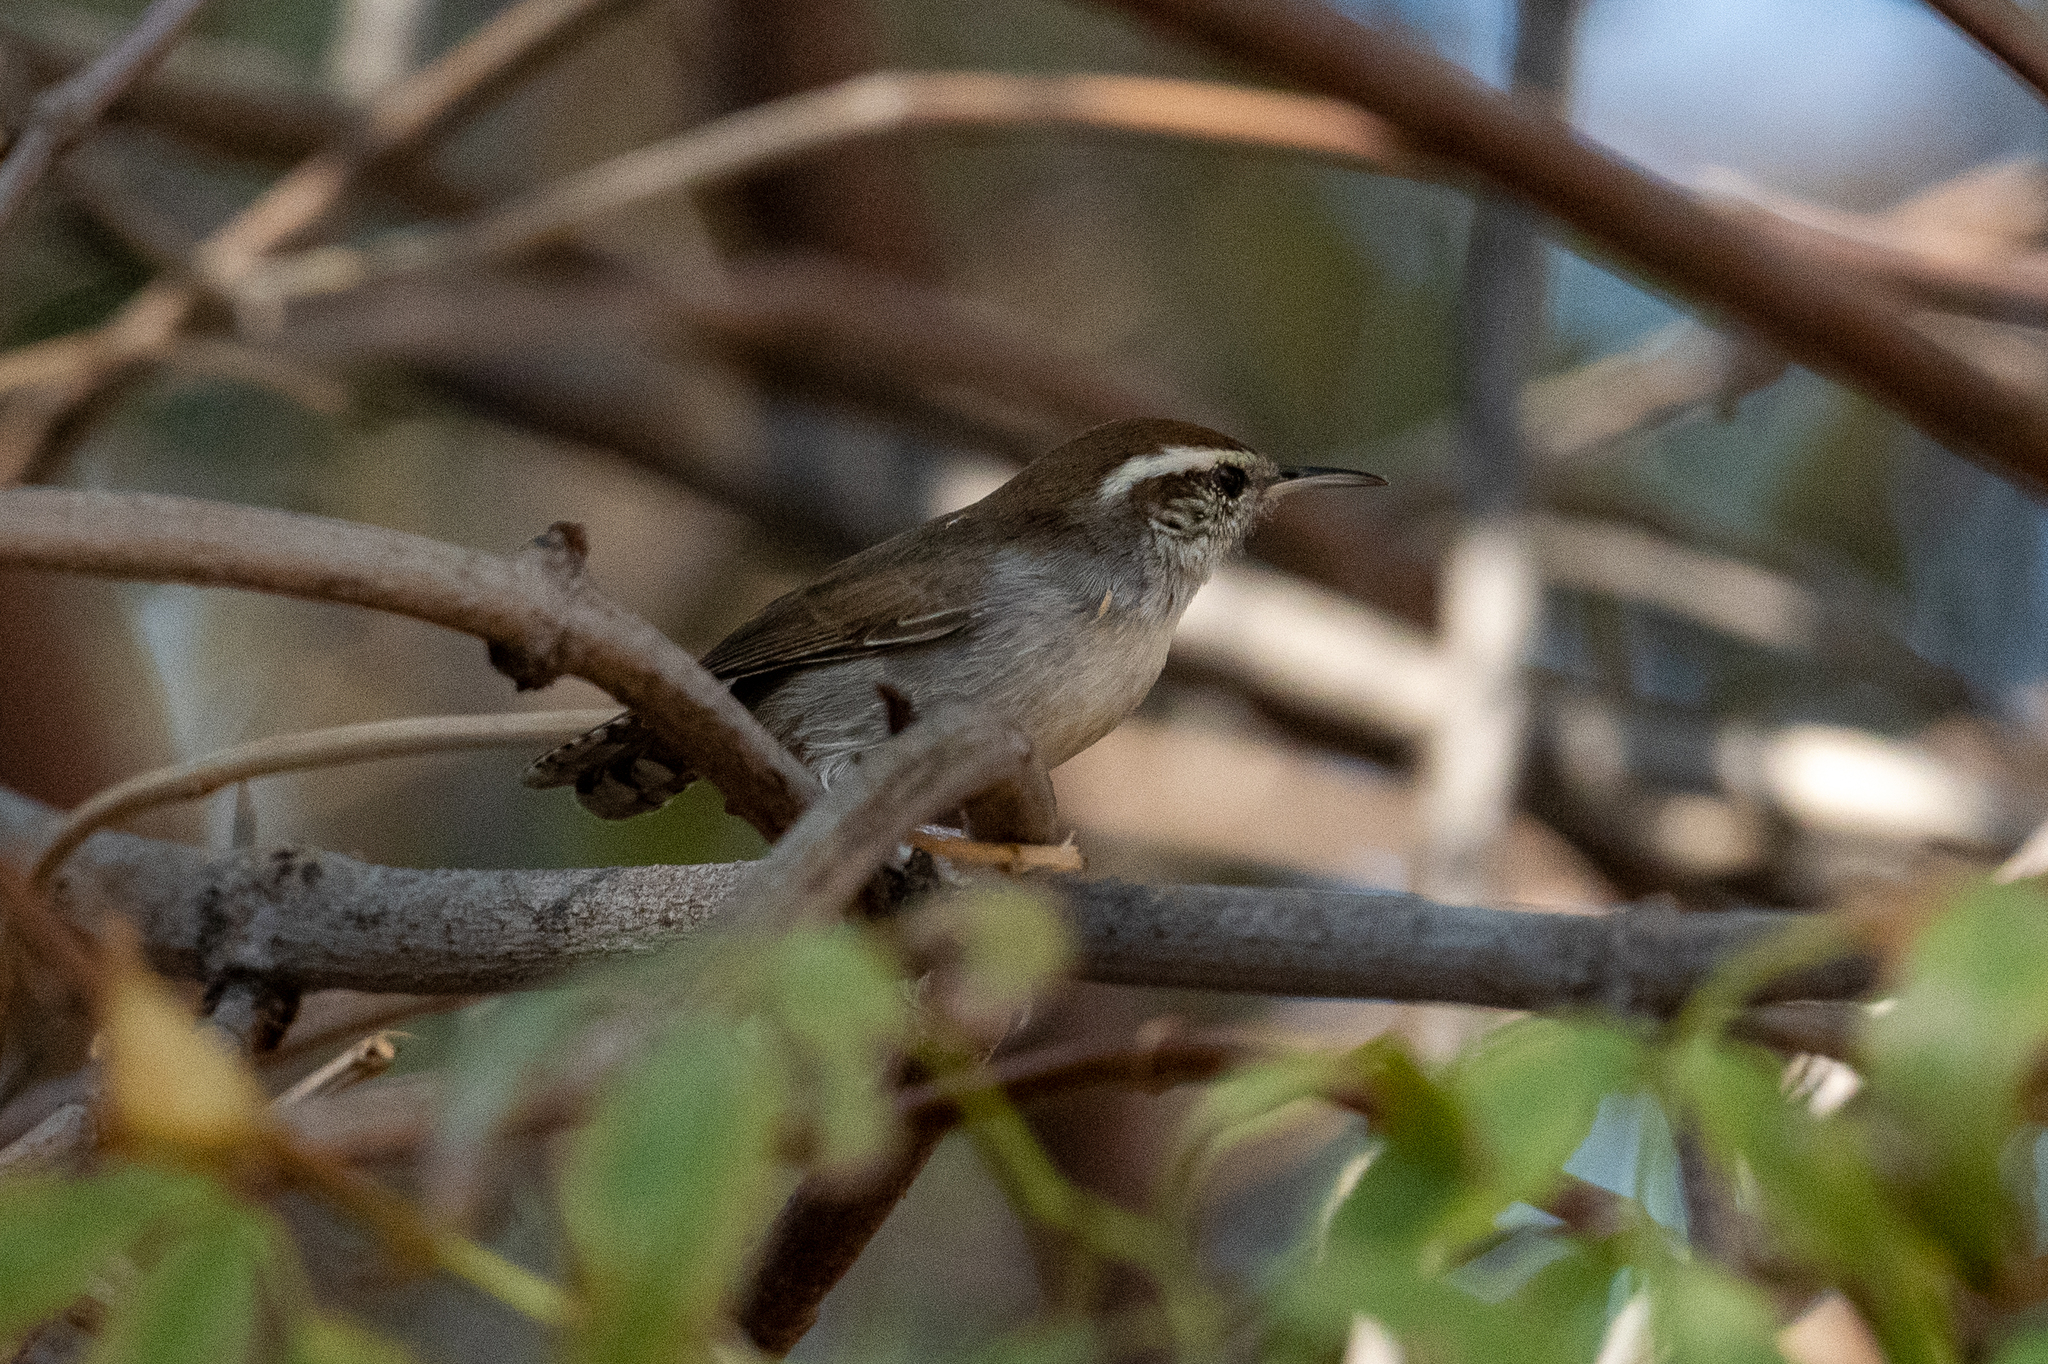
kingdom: Animalia
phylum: Chordata
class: Aves
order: Passeriformes
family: Troglodytidae
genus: Thryomanes
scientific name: Thryomanes bewickii
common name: Bewick's wren
